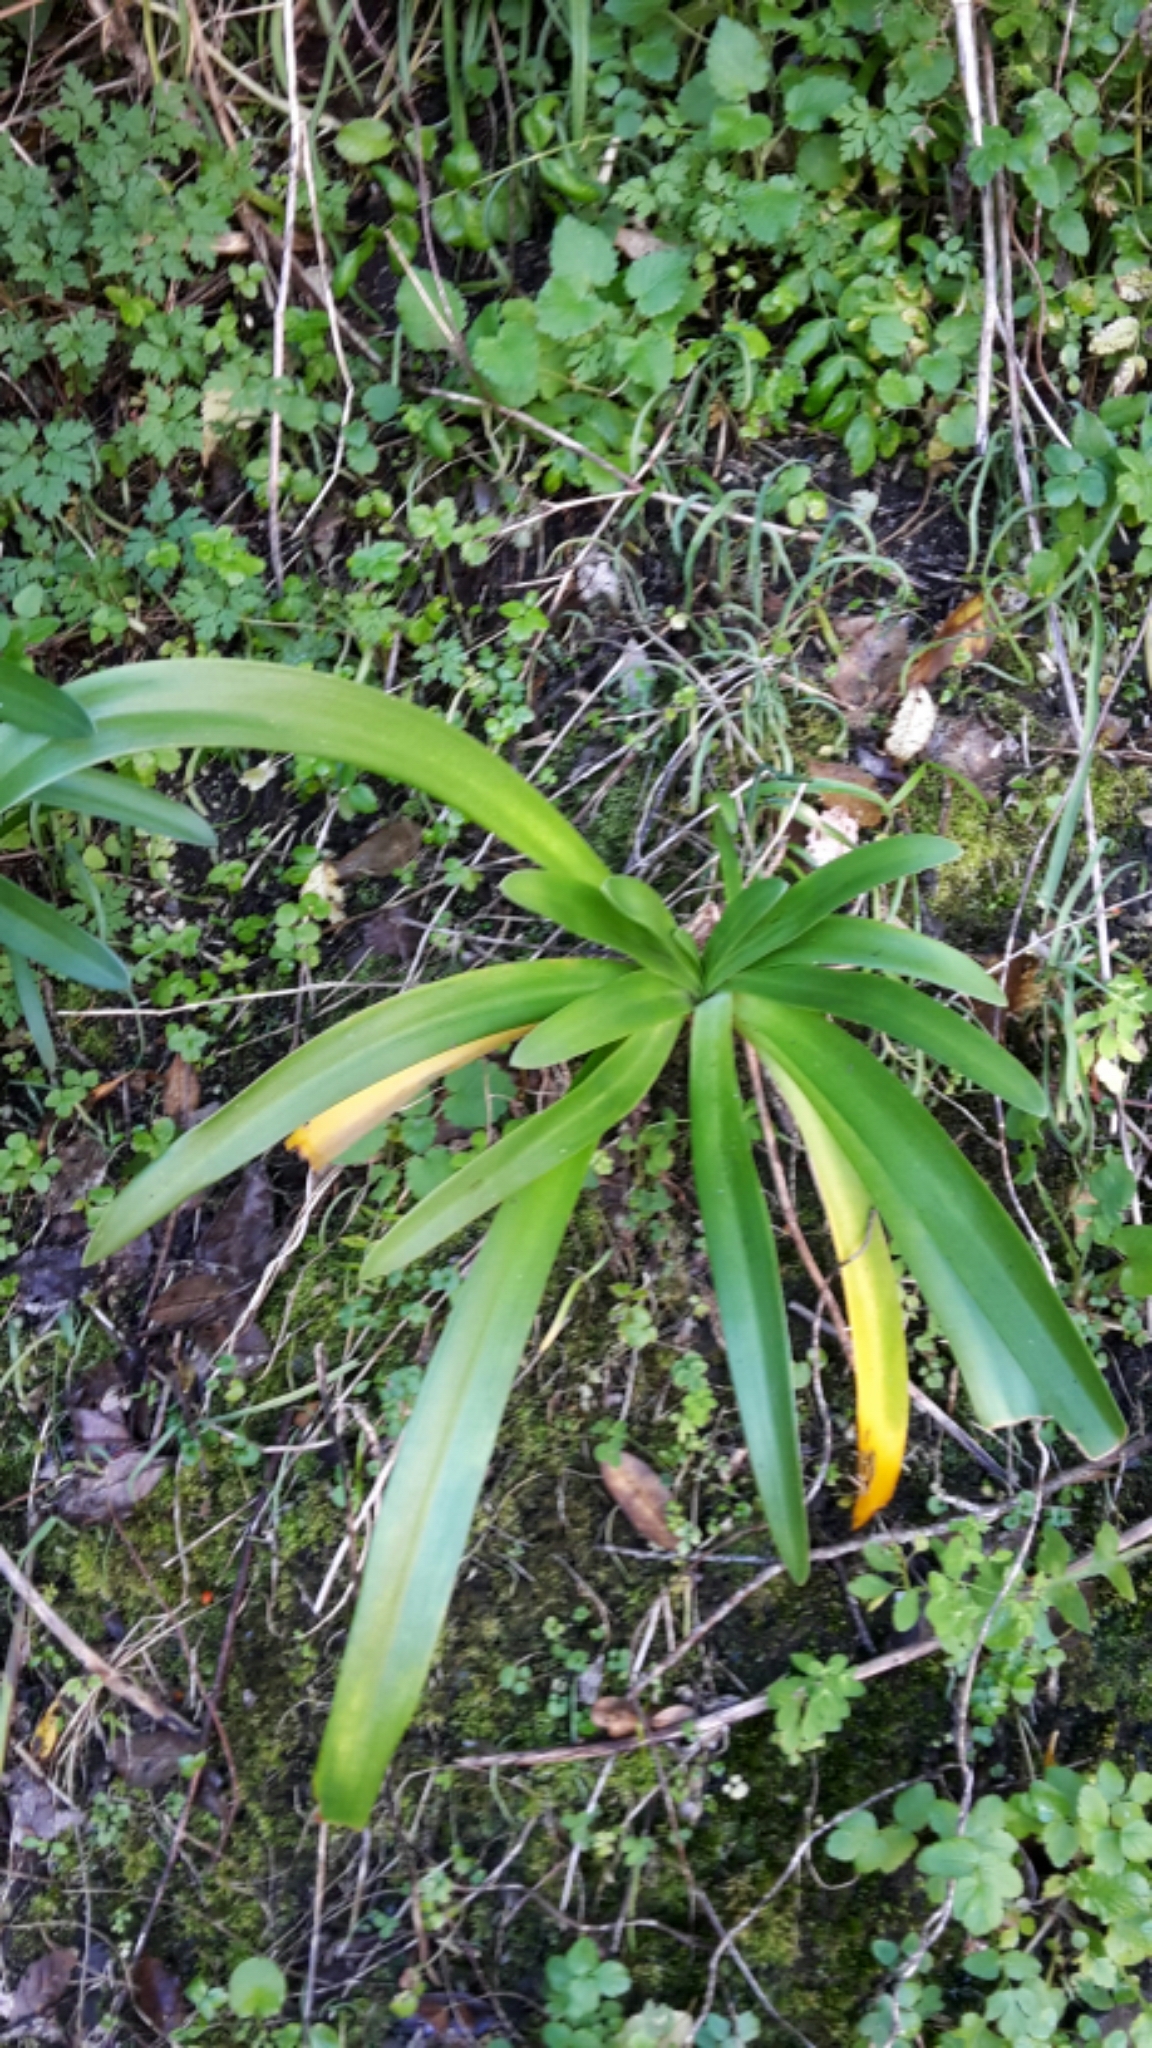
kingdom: Plantae
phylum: Tracheophyta
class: Liliopsida
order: Asparagales
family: Amaryllidaceae
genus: Agapanthus
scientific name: Agapanthus praecox
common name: African-lily
